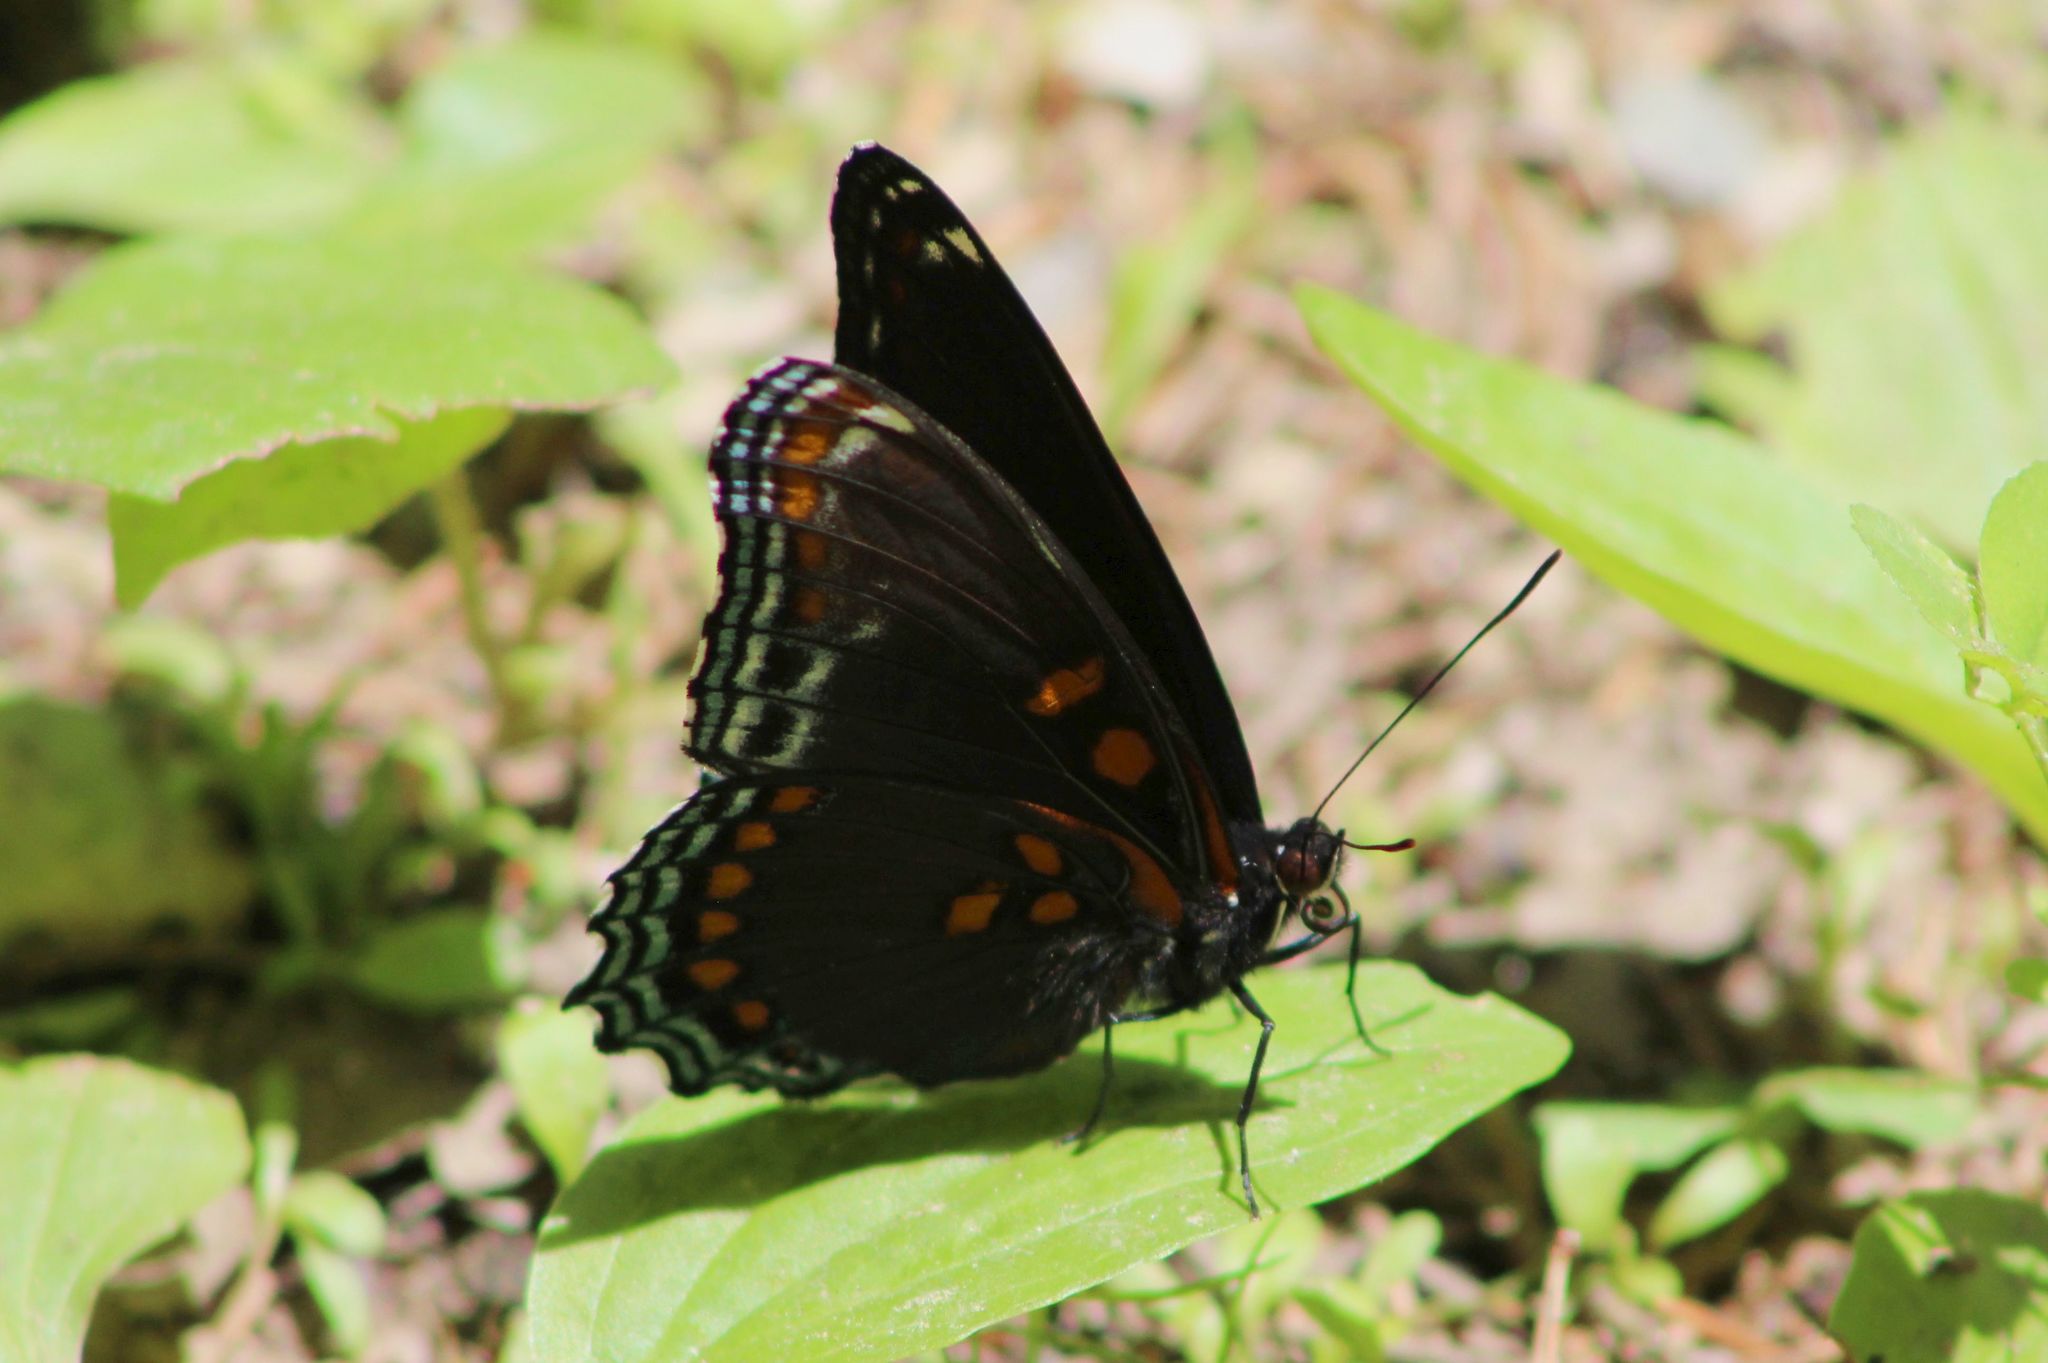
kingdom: Animalia
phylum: Arthropoda
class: Insecta
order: Lepidoptera
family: Nymphalidae
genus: Limenitis
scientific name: Limenitis astyanax
